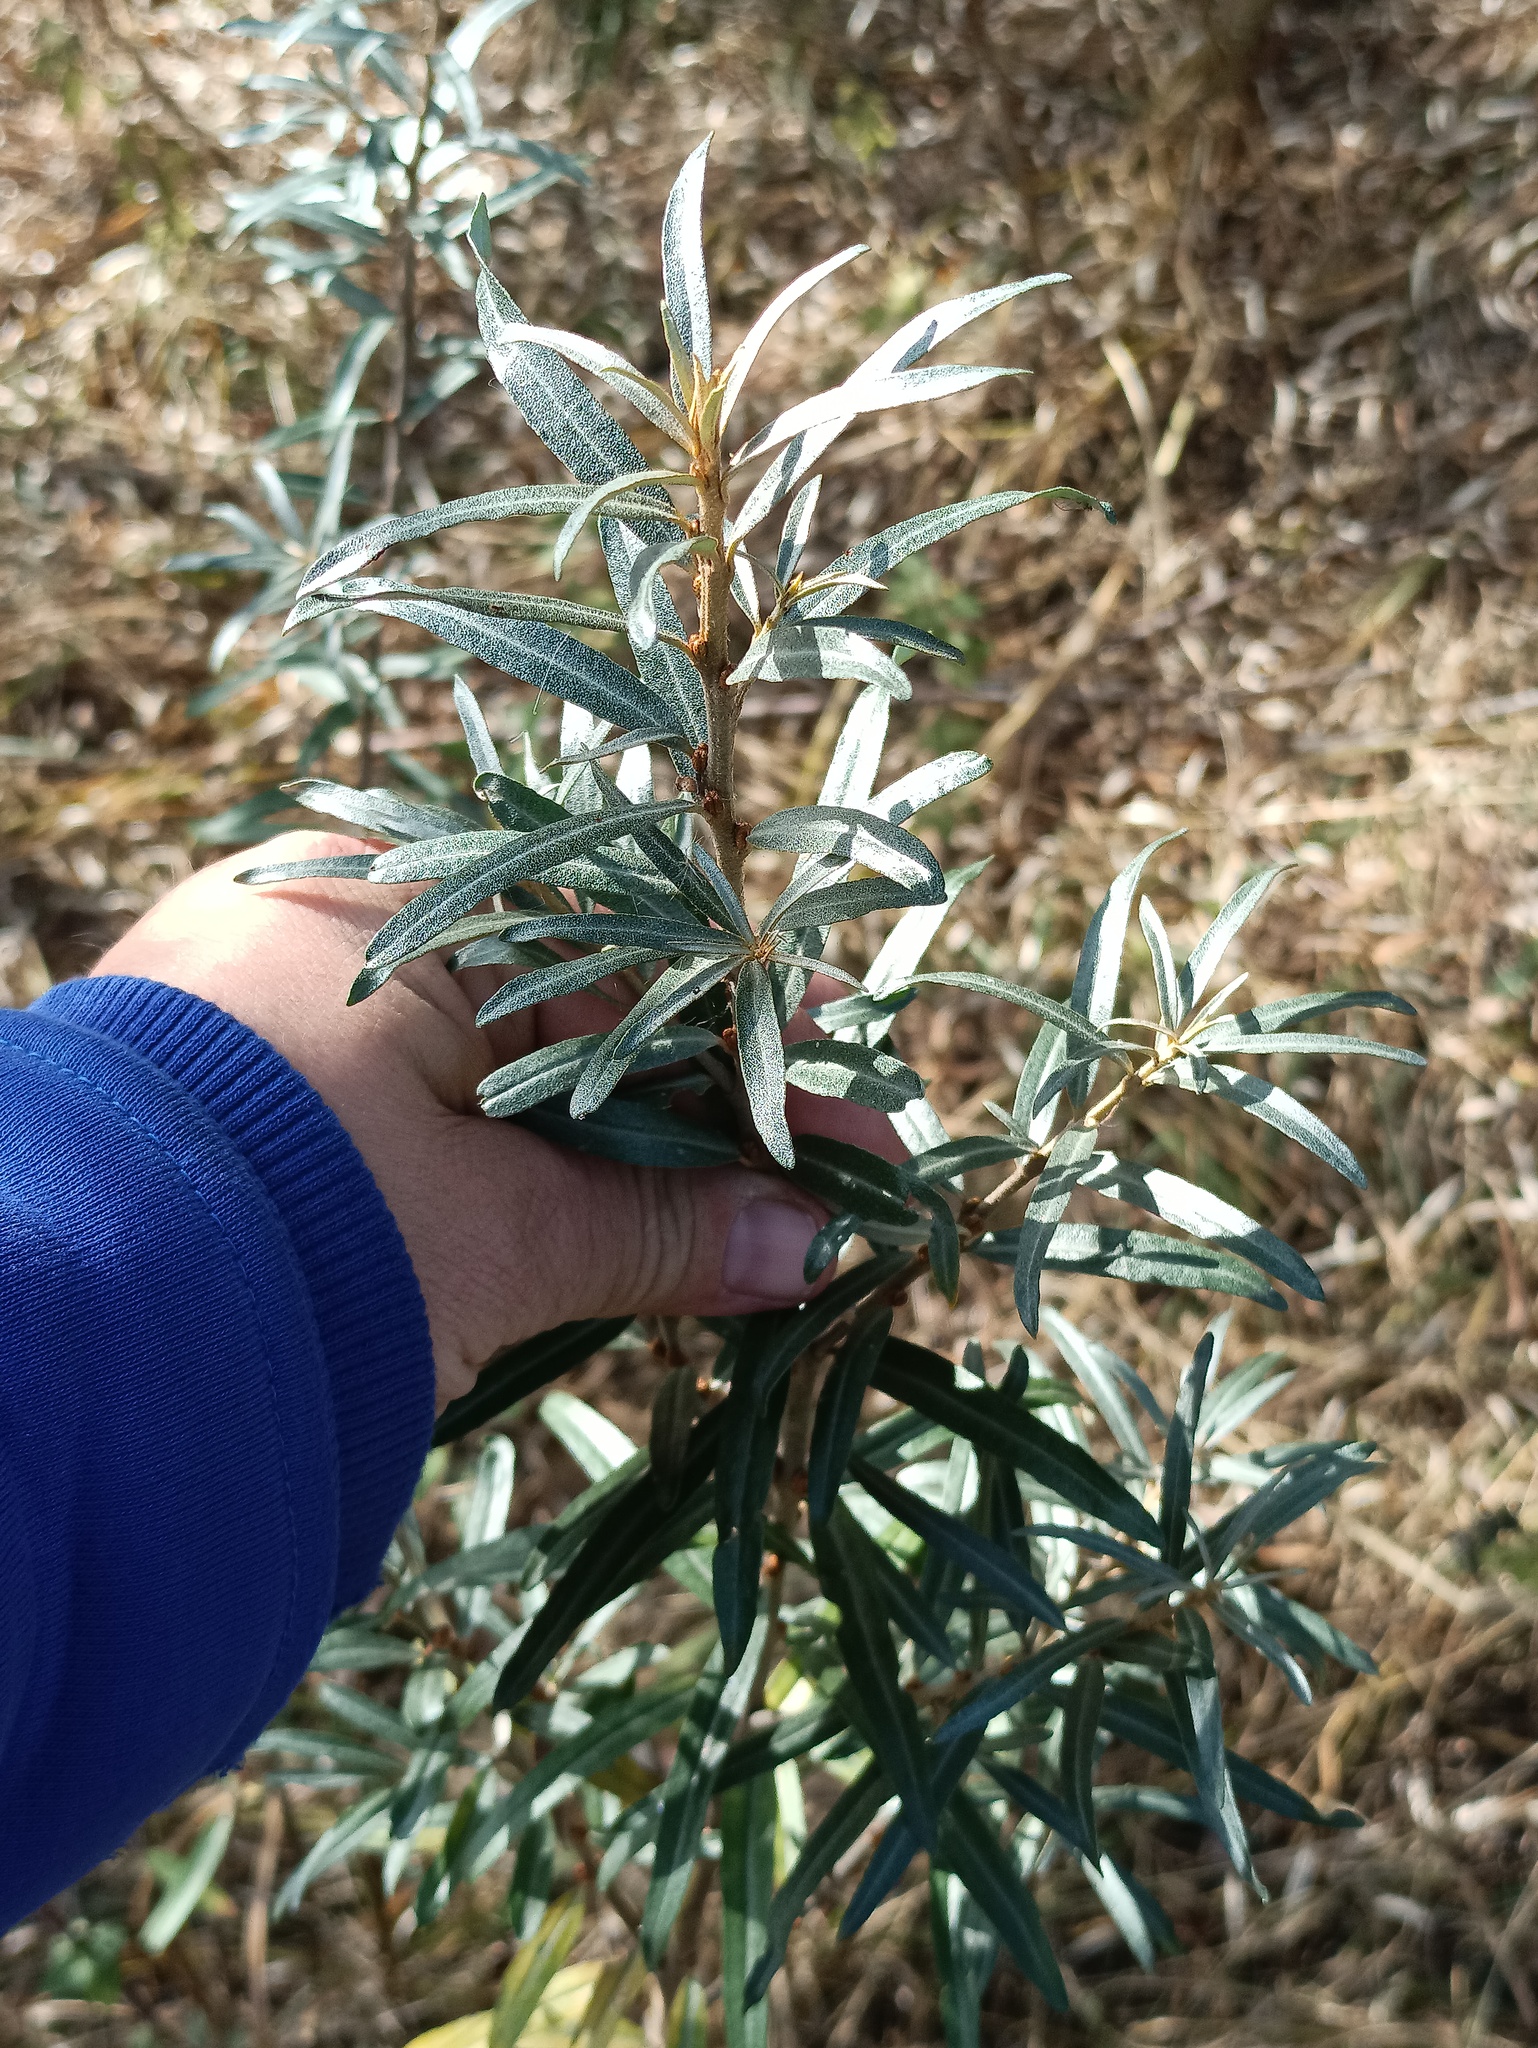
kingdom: Plantae
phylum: Tracheophyta
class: Magnoliopsida
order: Rosales
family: Elaeagnaceae
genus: Hippophae
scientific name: Hippophae rhamnoides
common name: Sea-buckthorn
